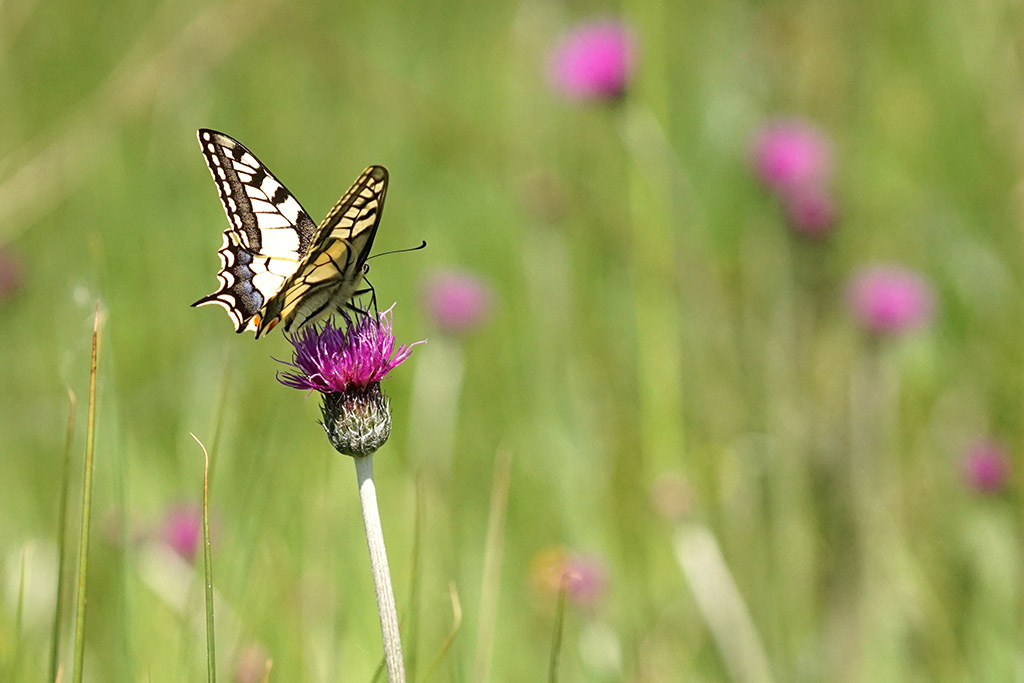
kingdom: Plantae
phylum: Tracheophyta
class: Magnoliopsida
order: Asterales
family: Asteraceae
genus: Cirsium
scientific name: Cirsium dissectum
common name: Meadow thistle
